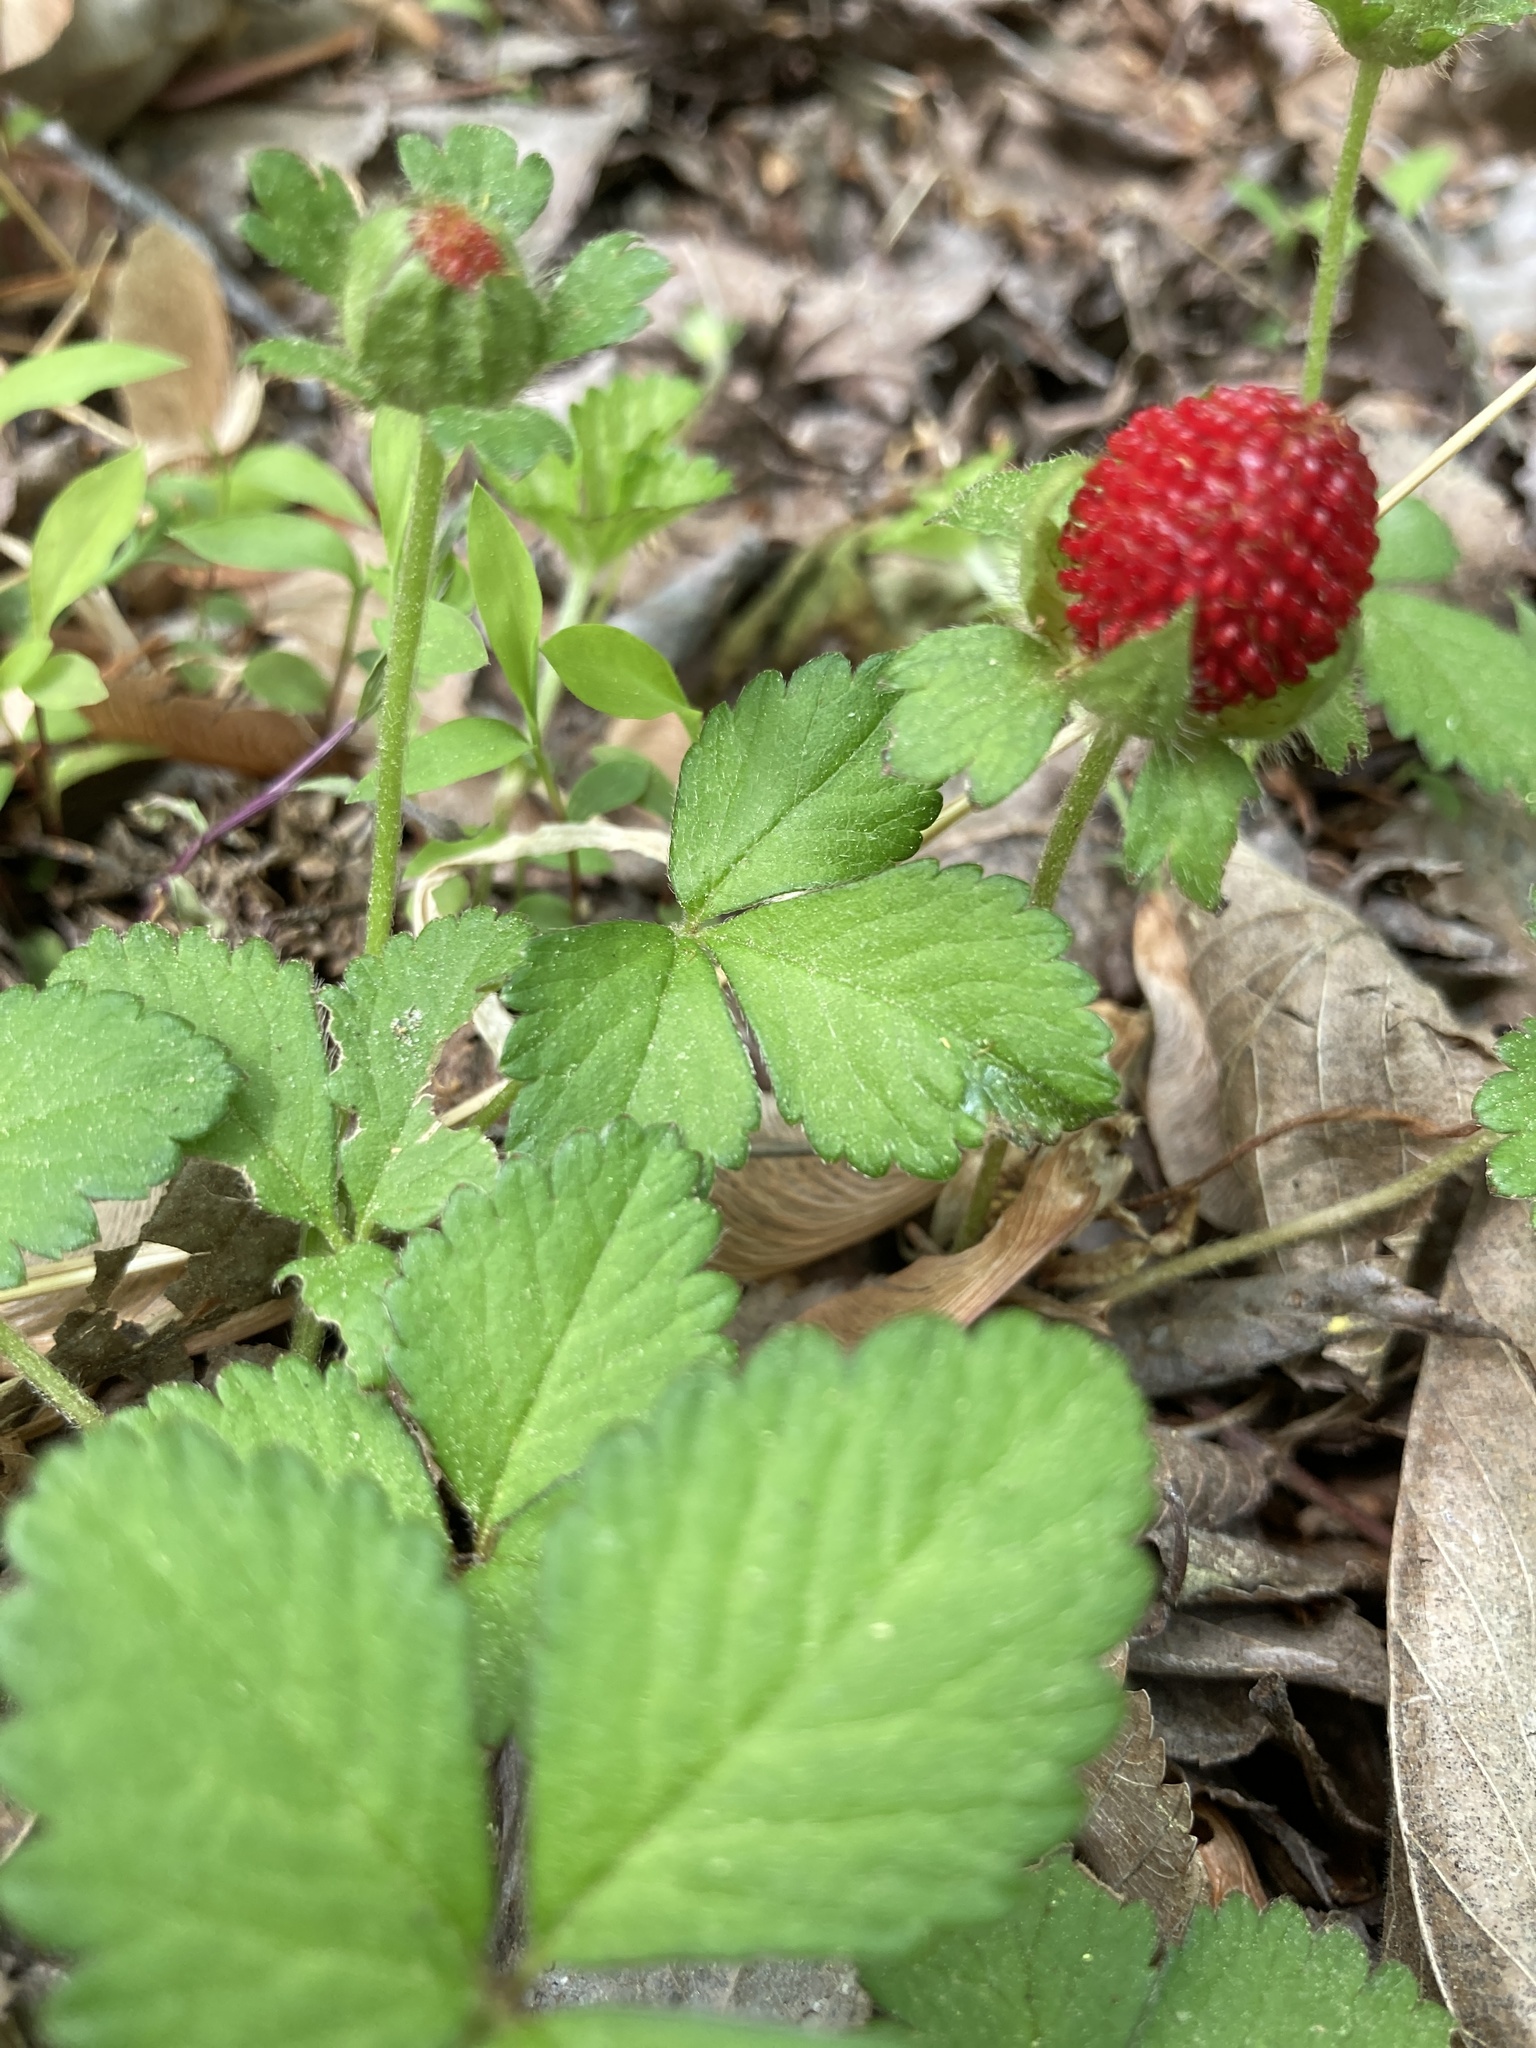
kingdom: Plantae
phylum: Tracheophyta
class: Magnoliopsida
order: Rosales
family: Rosaceae
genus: Potentilla
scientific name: Potentilla indica
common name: Yellow-flowered strawberry
